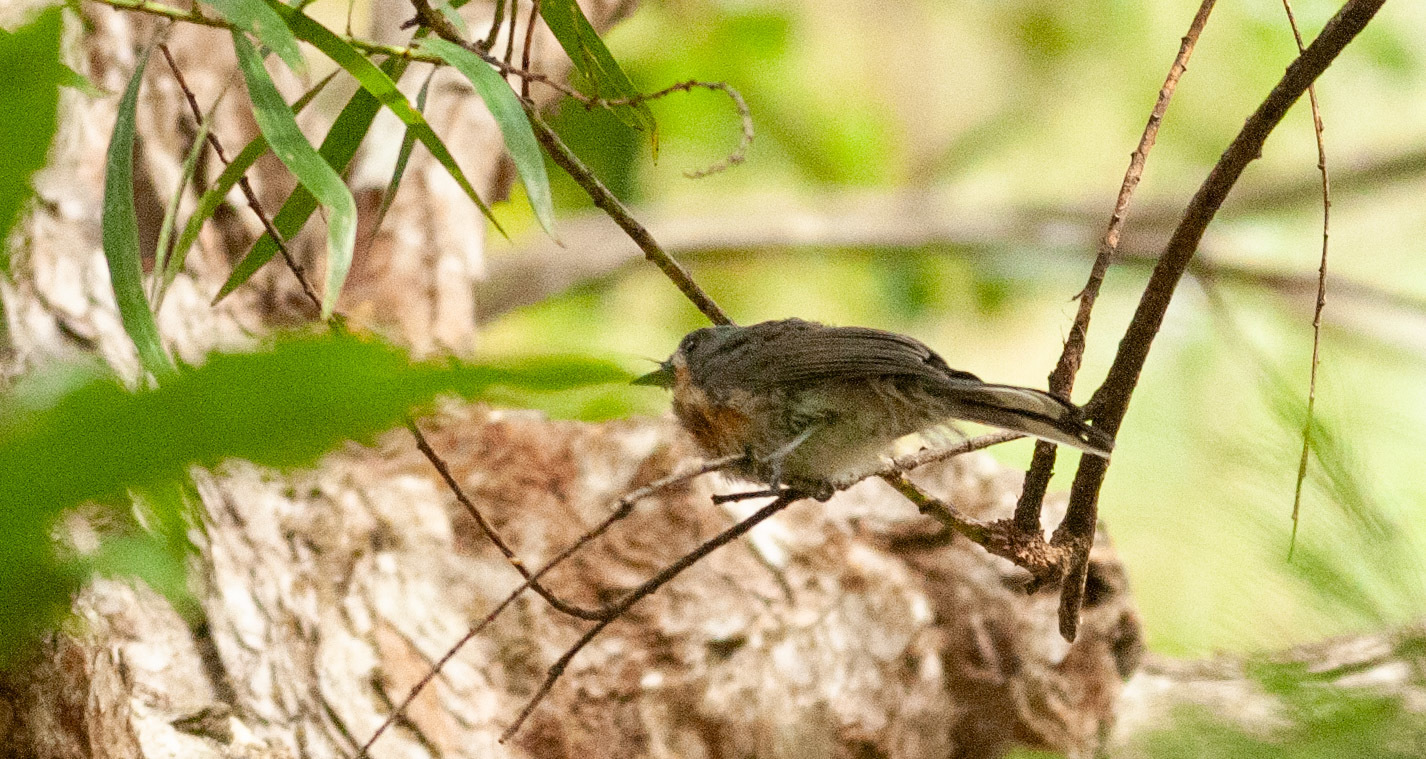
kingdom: Animalia
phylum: Chordata
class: Aves
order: Passeriformes
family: Monarchidae
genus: Symposiachrus
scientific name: Symposiachrus trivirgatus
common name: Spectacled monarch
